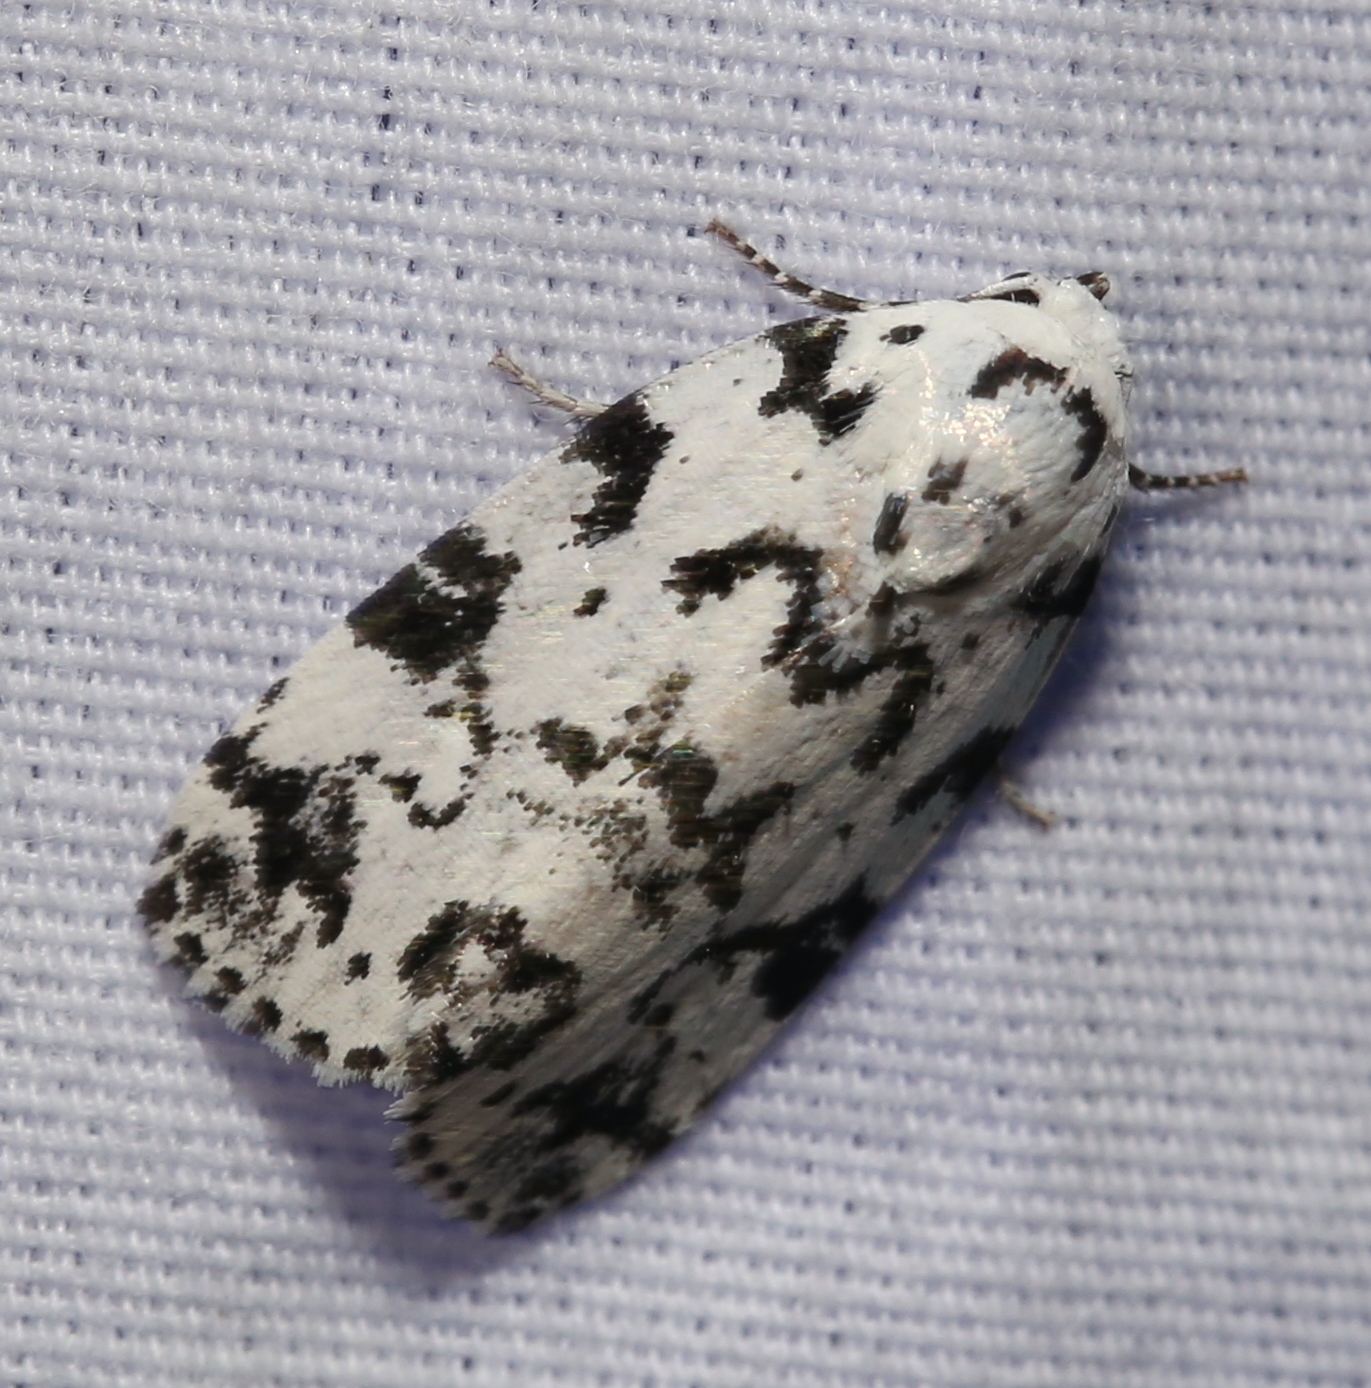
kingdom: Animalia
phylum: Arthropoda
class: Insecta
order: Lepidoptera
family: Noctuidae
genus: Polygrammate
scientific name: Polygrammate hebraeicum
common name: Hebrew moth
